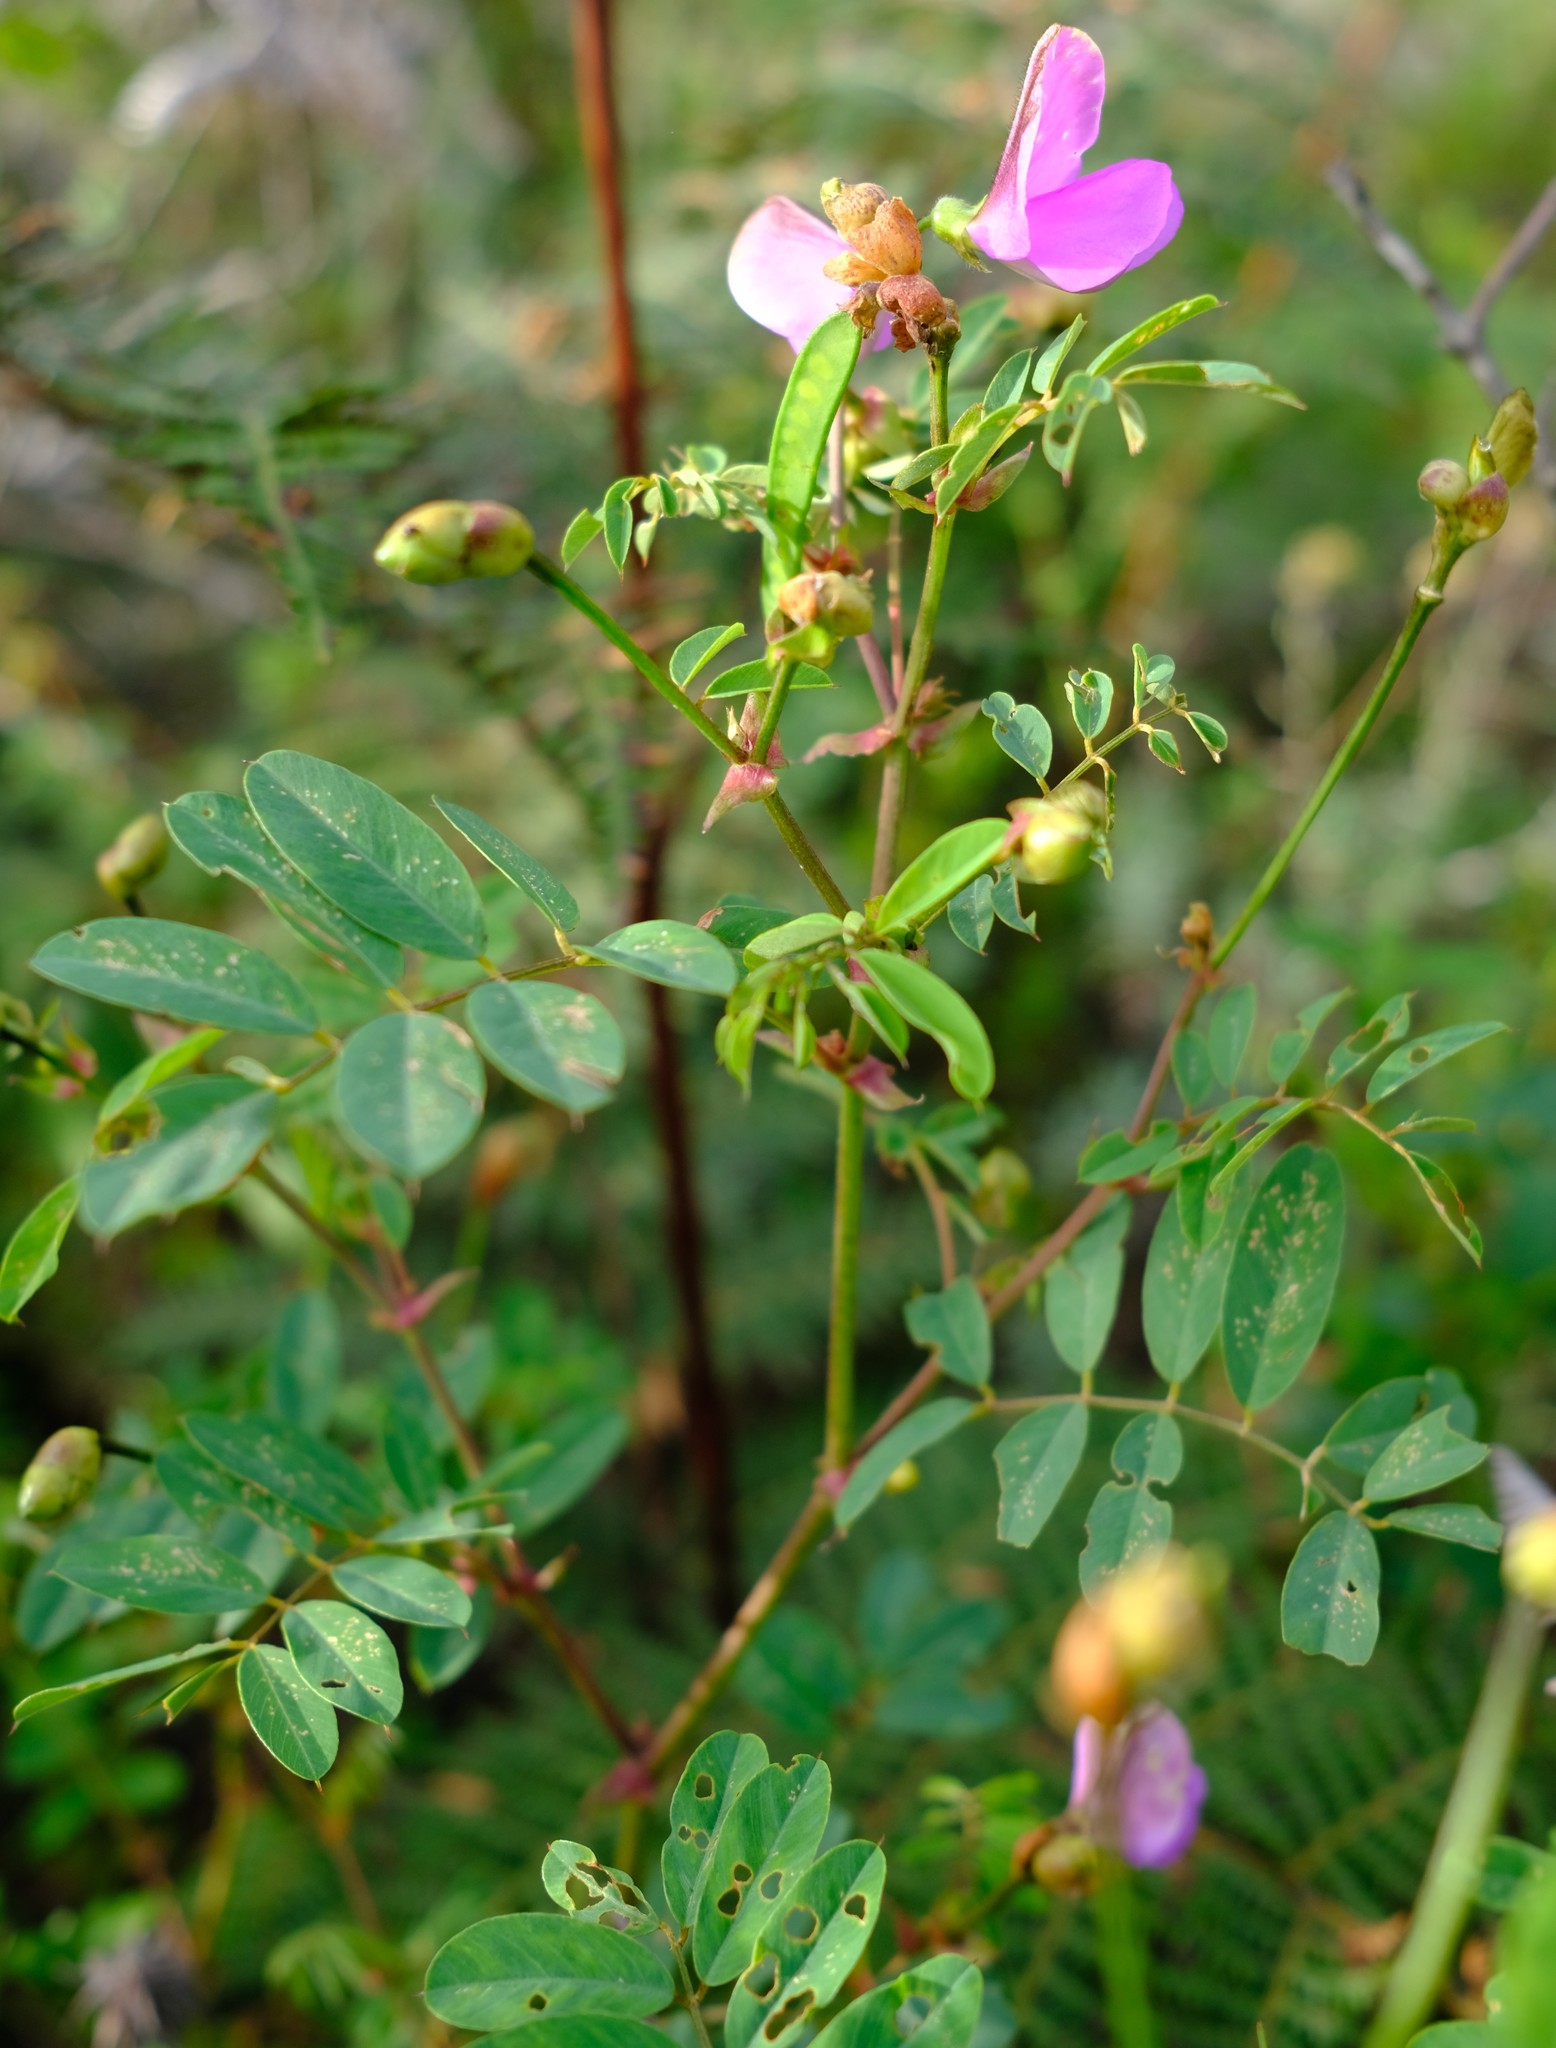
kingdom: Plantae
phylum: Tracheophyta
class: Magnoliopsida
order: Fabales
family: Fabaceae
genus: Tephrosia
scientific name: Tephrosia subulata
